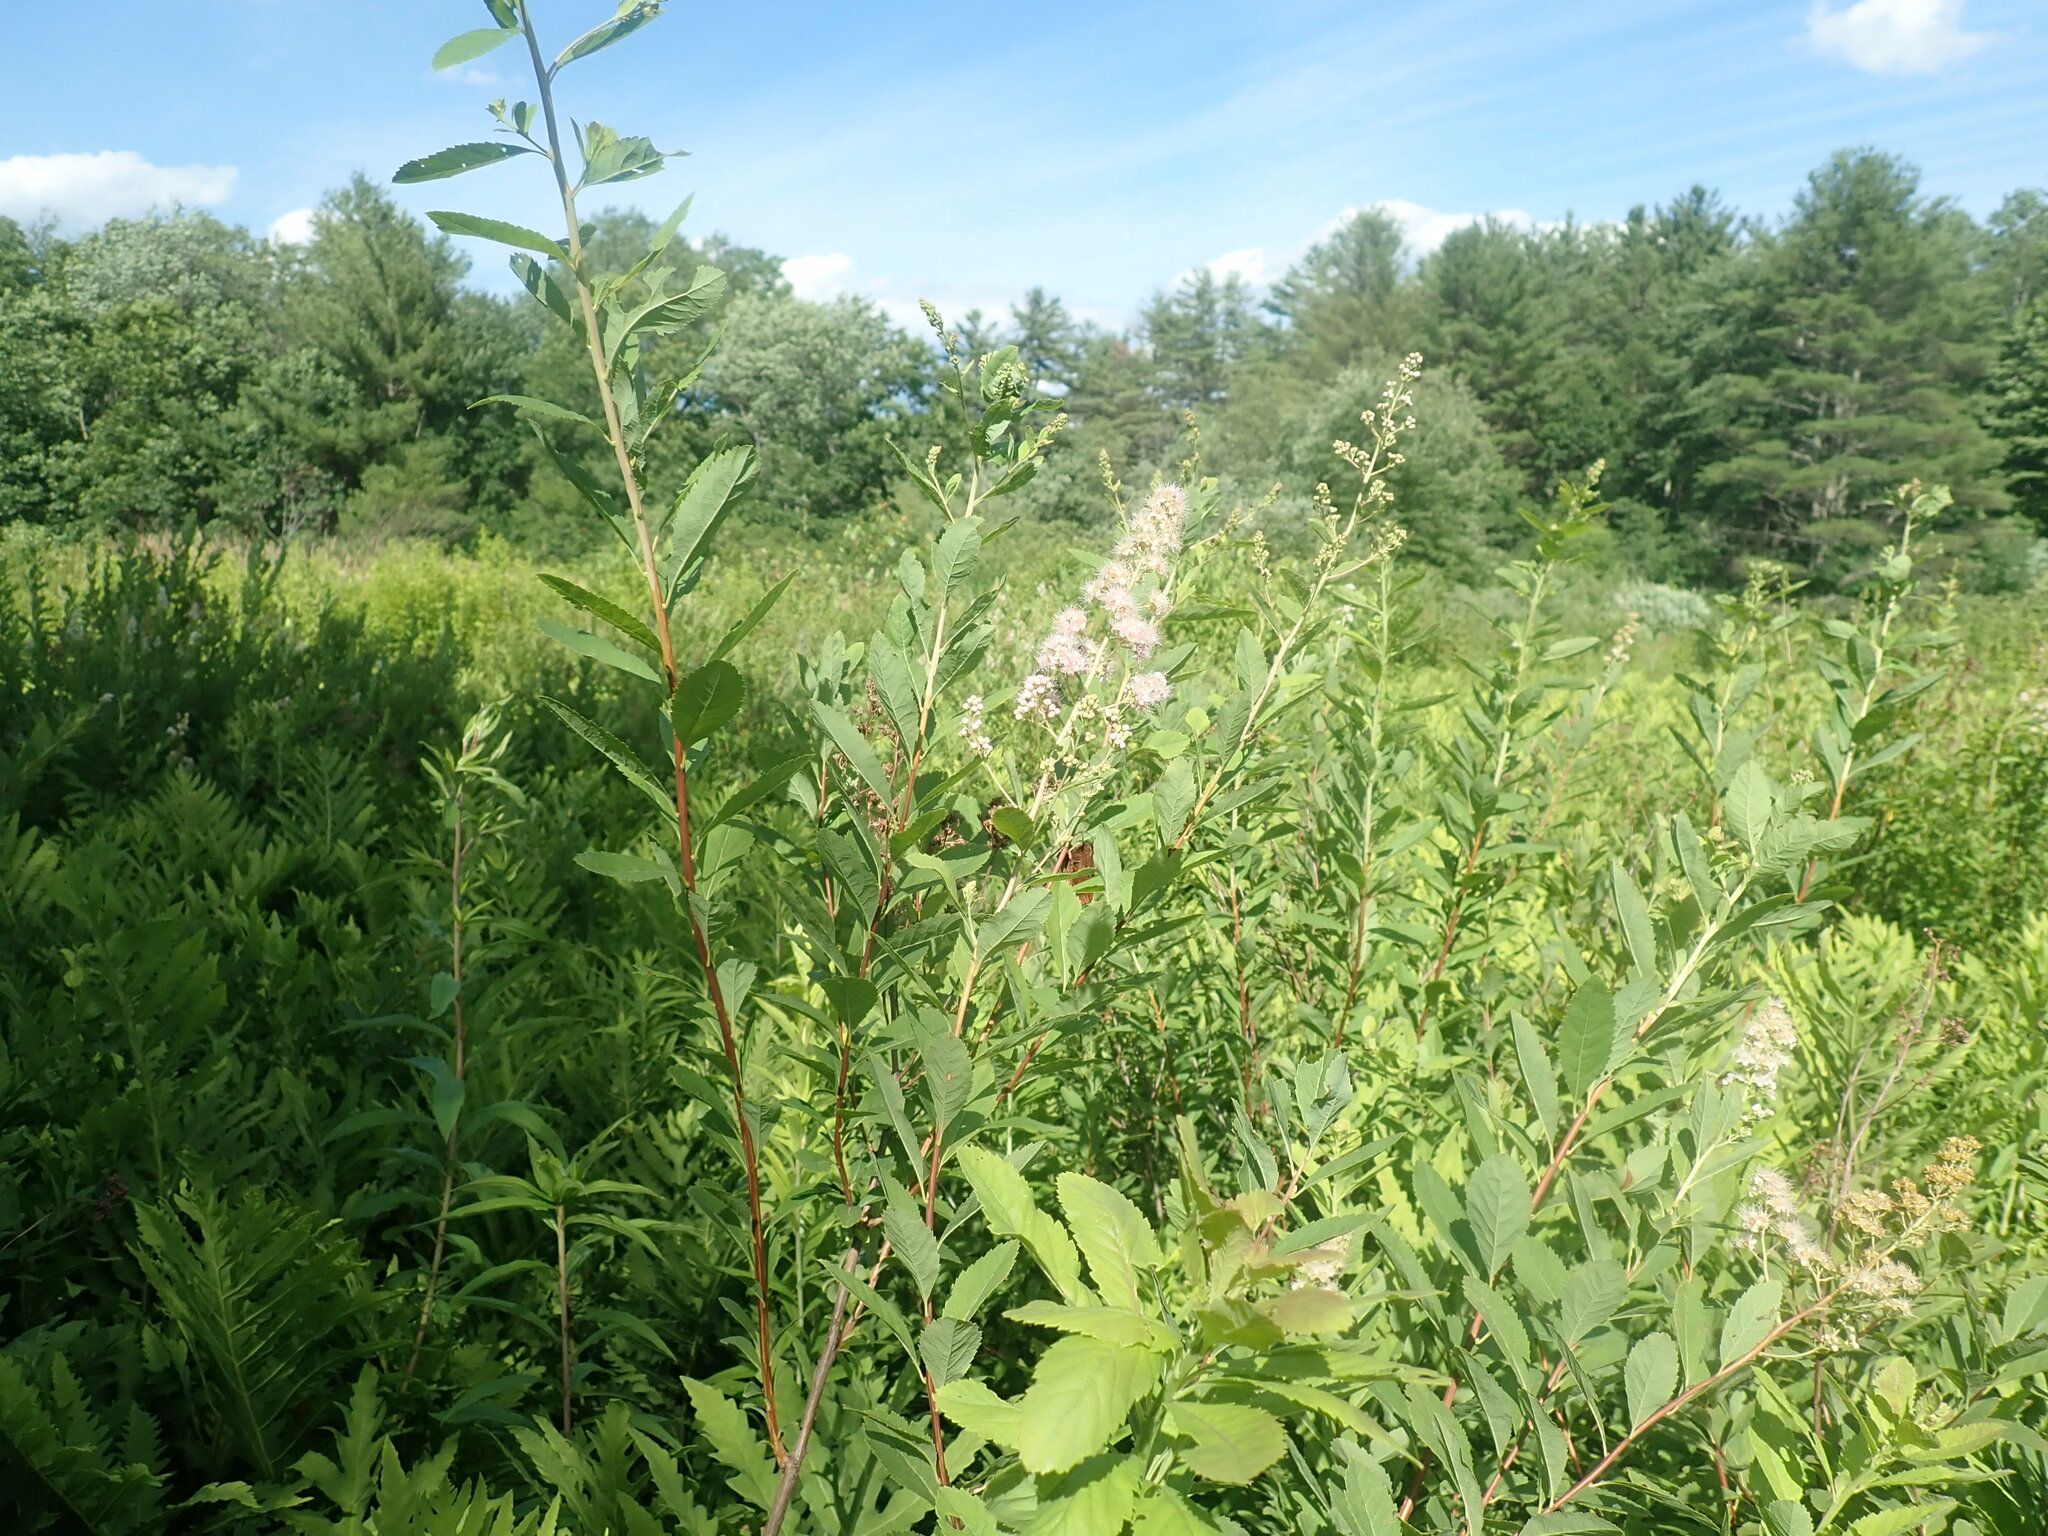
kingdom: Plantae
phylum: Tracheophyta
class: Magnoliopsida
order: Rosales
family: Rosaceae
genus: Spiraea
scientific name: Spiraea alba
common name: Pale bridewort
